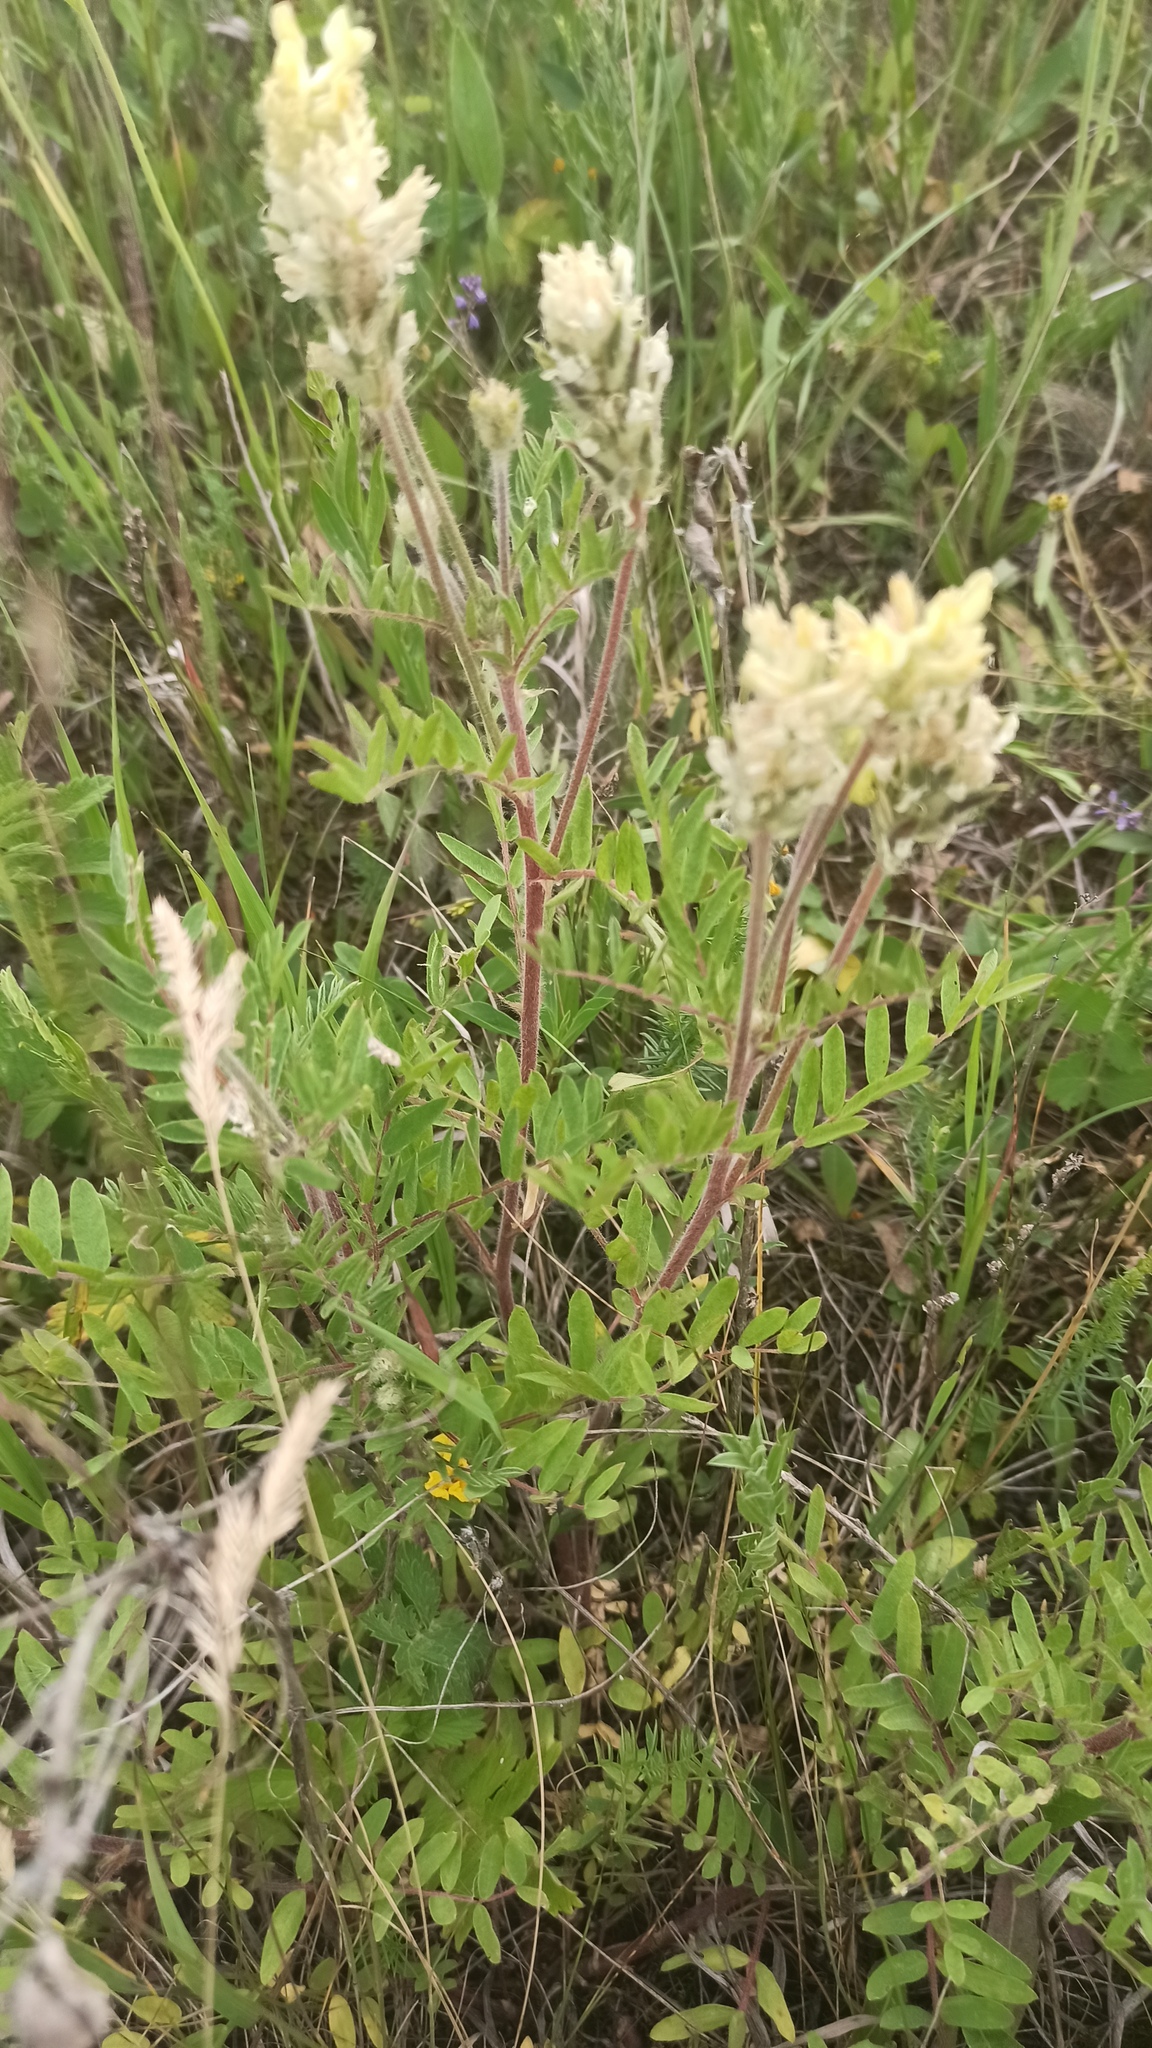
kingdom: Plantae
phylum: Tracheophyta
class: Magnoliopsida
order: Fabales
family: Fabaceae
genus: Oxytropis
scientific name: Oxytropis pilosa
